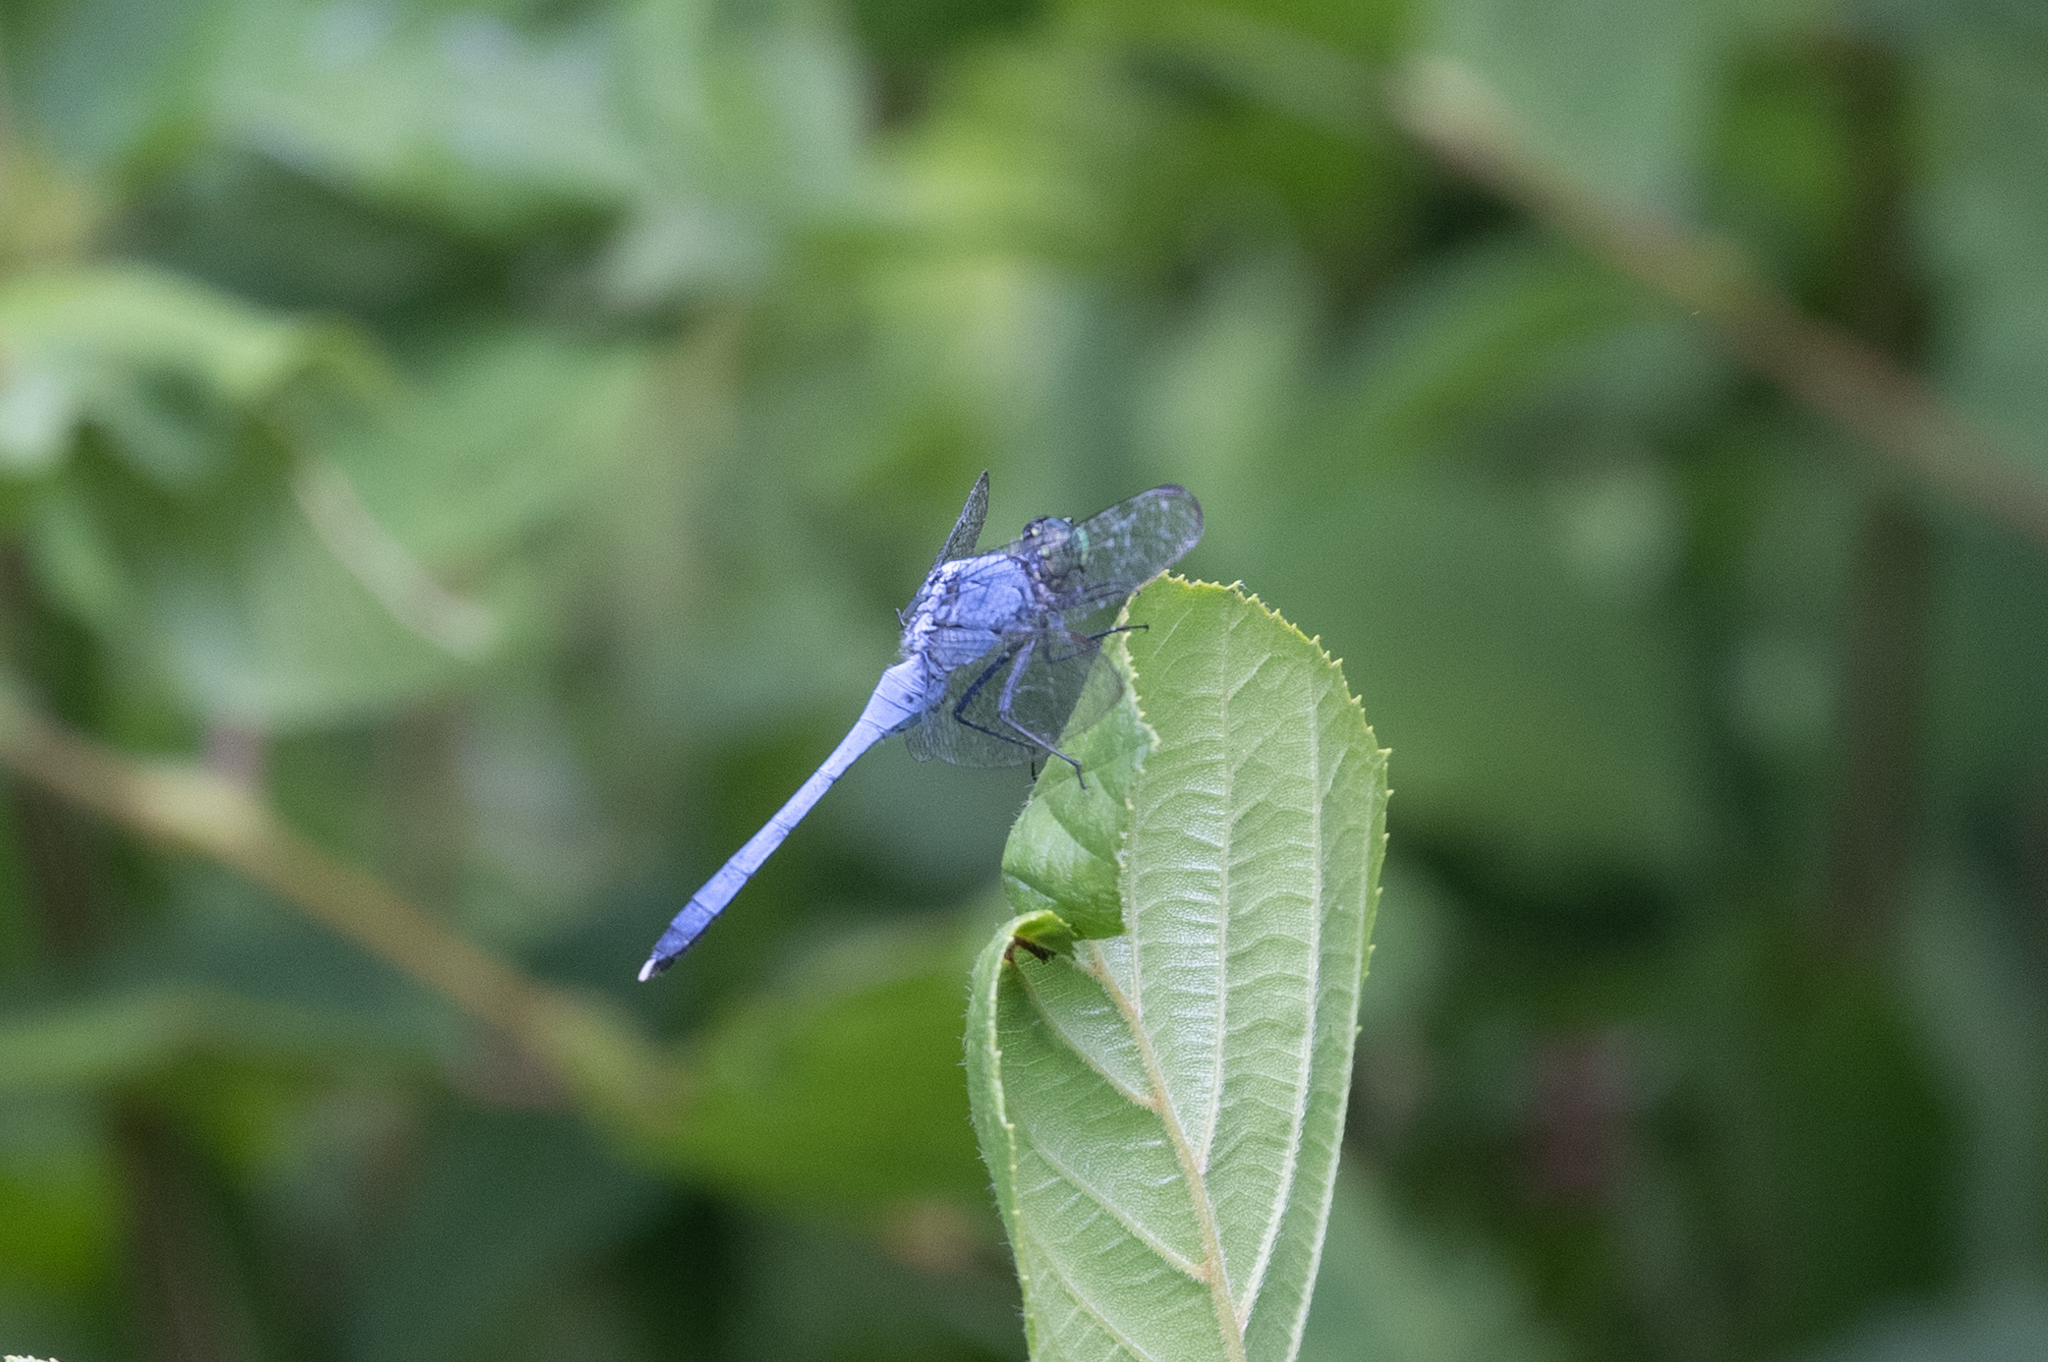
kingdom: Animalia
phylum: Arthropoda
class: Insecta
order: Odonata
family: Libellulidae
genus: Erythemis
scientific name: Erythemis simplicicollis
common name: Eastern pondhawk
